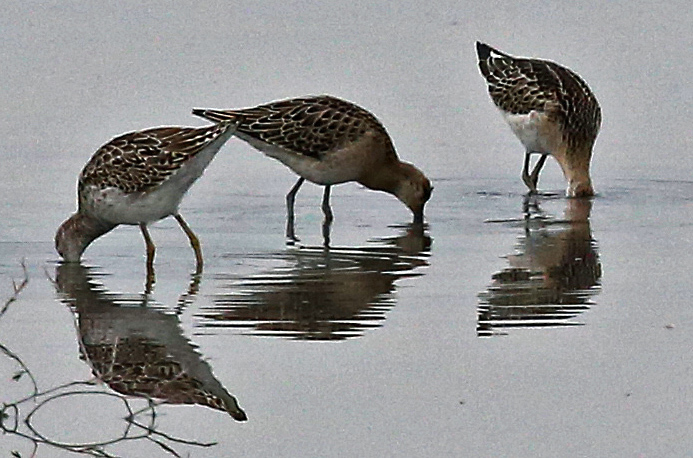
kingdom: Animalia
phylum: Chordata
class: Aves
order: Charadriiformes
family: Scolopacidae
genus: Calidris
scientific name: Calidris pugnax
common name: Ruff
